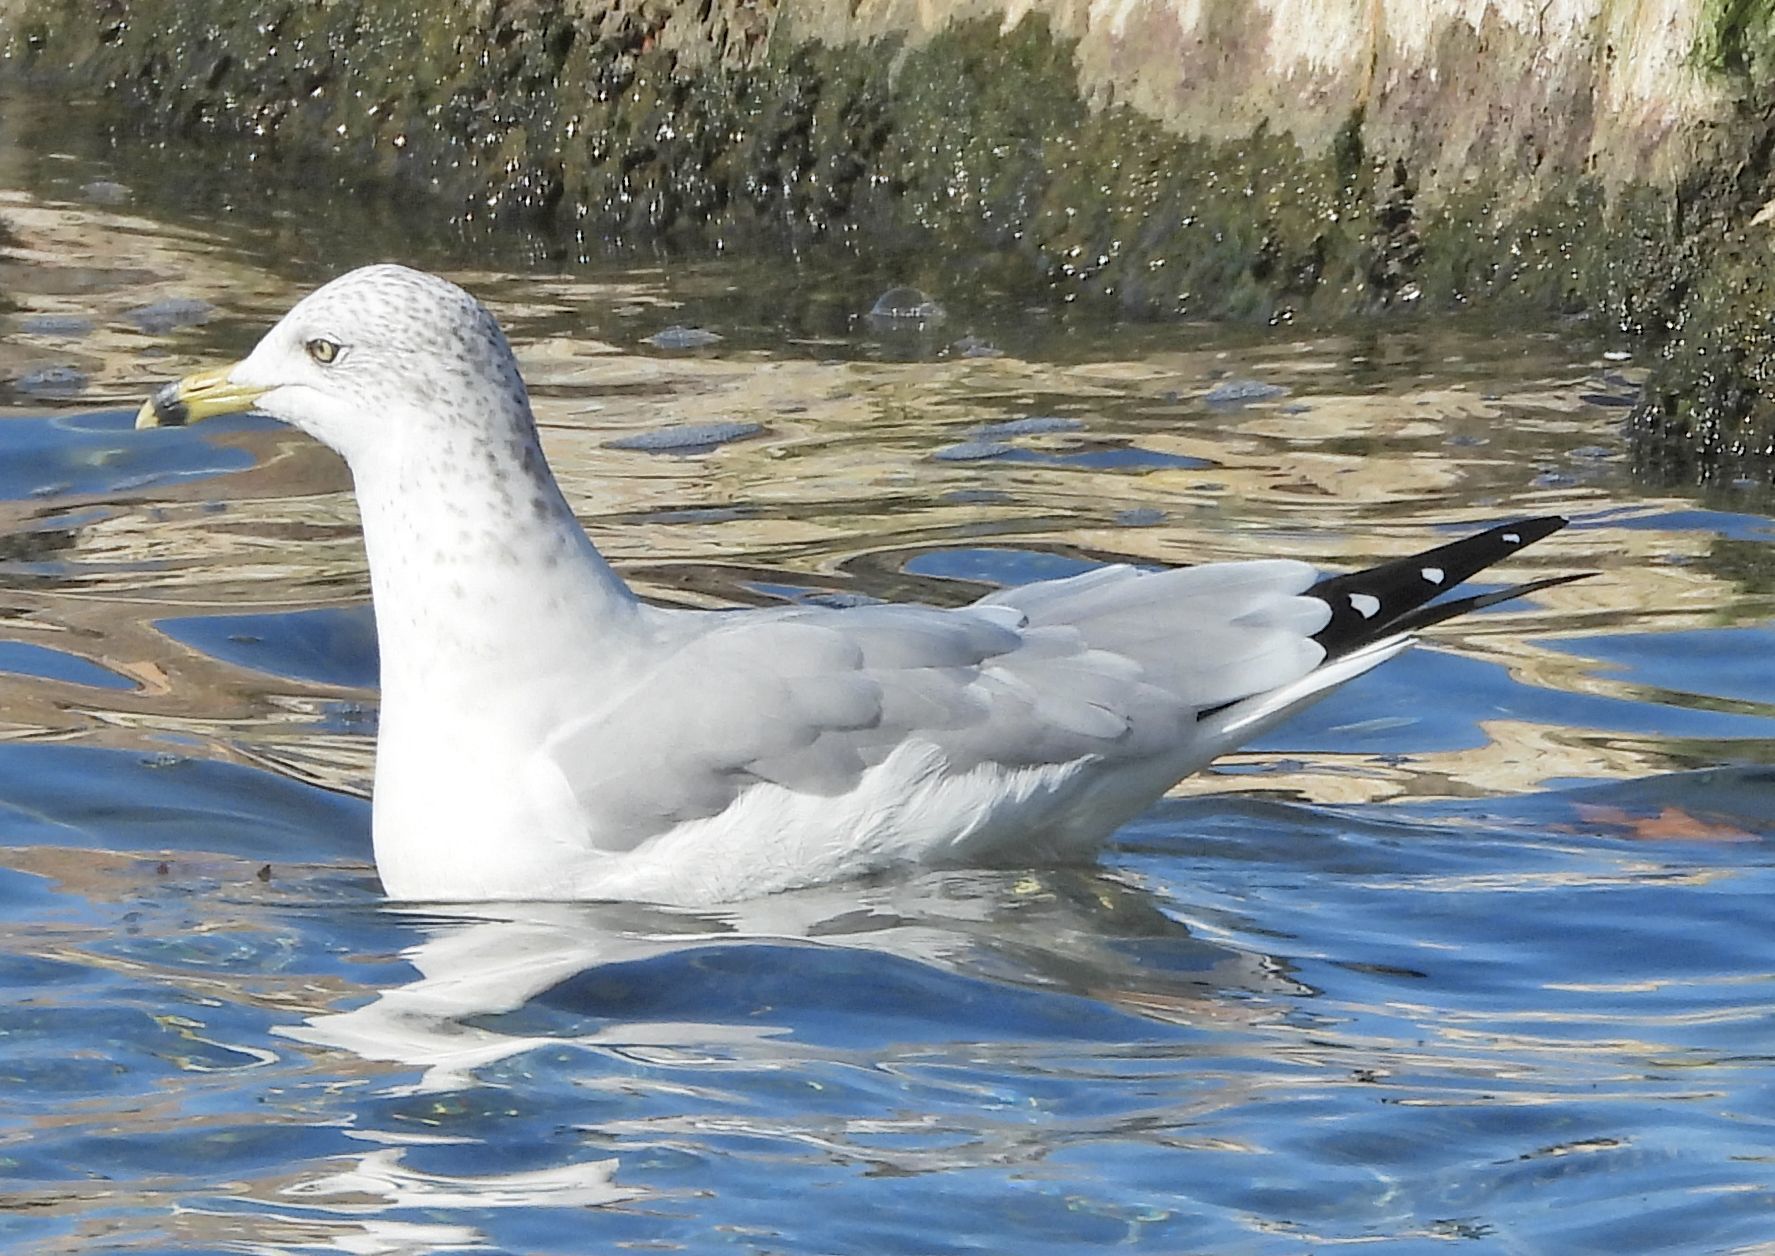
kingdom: Animalia
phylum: Chordata
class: Aves
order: Charadriiformes
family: Laridae
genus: Larus
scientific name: Larus delawarensis
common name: Ring-billed gull
